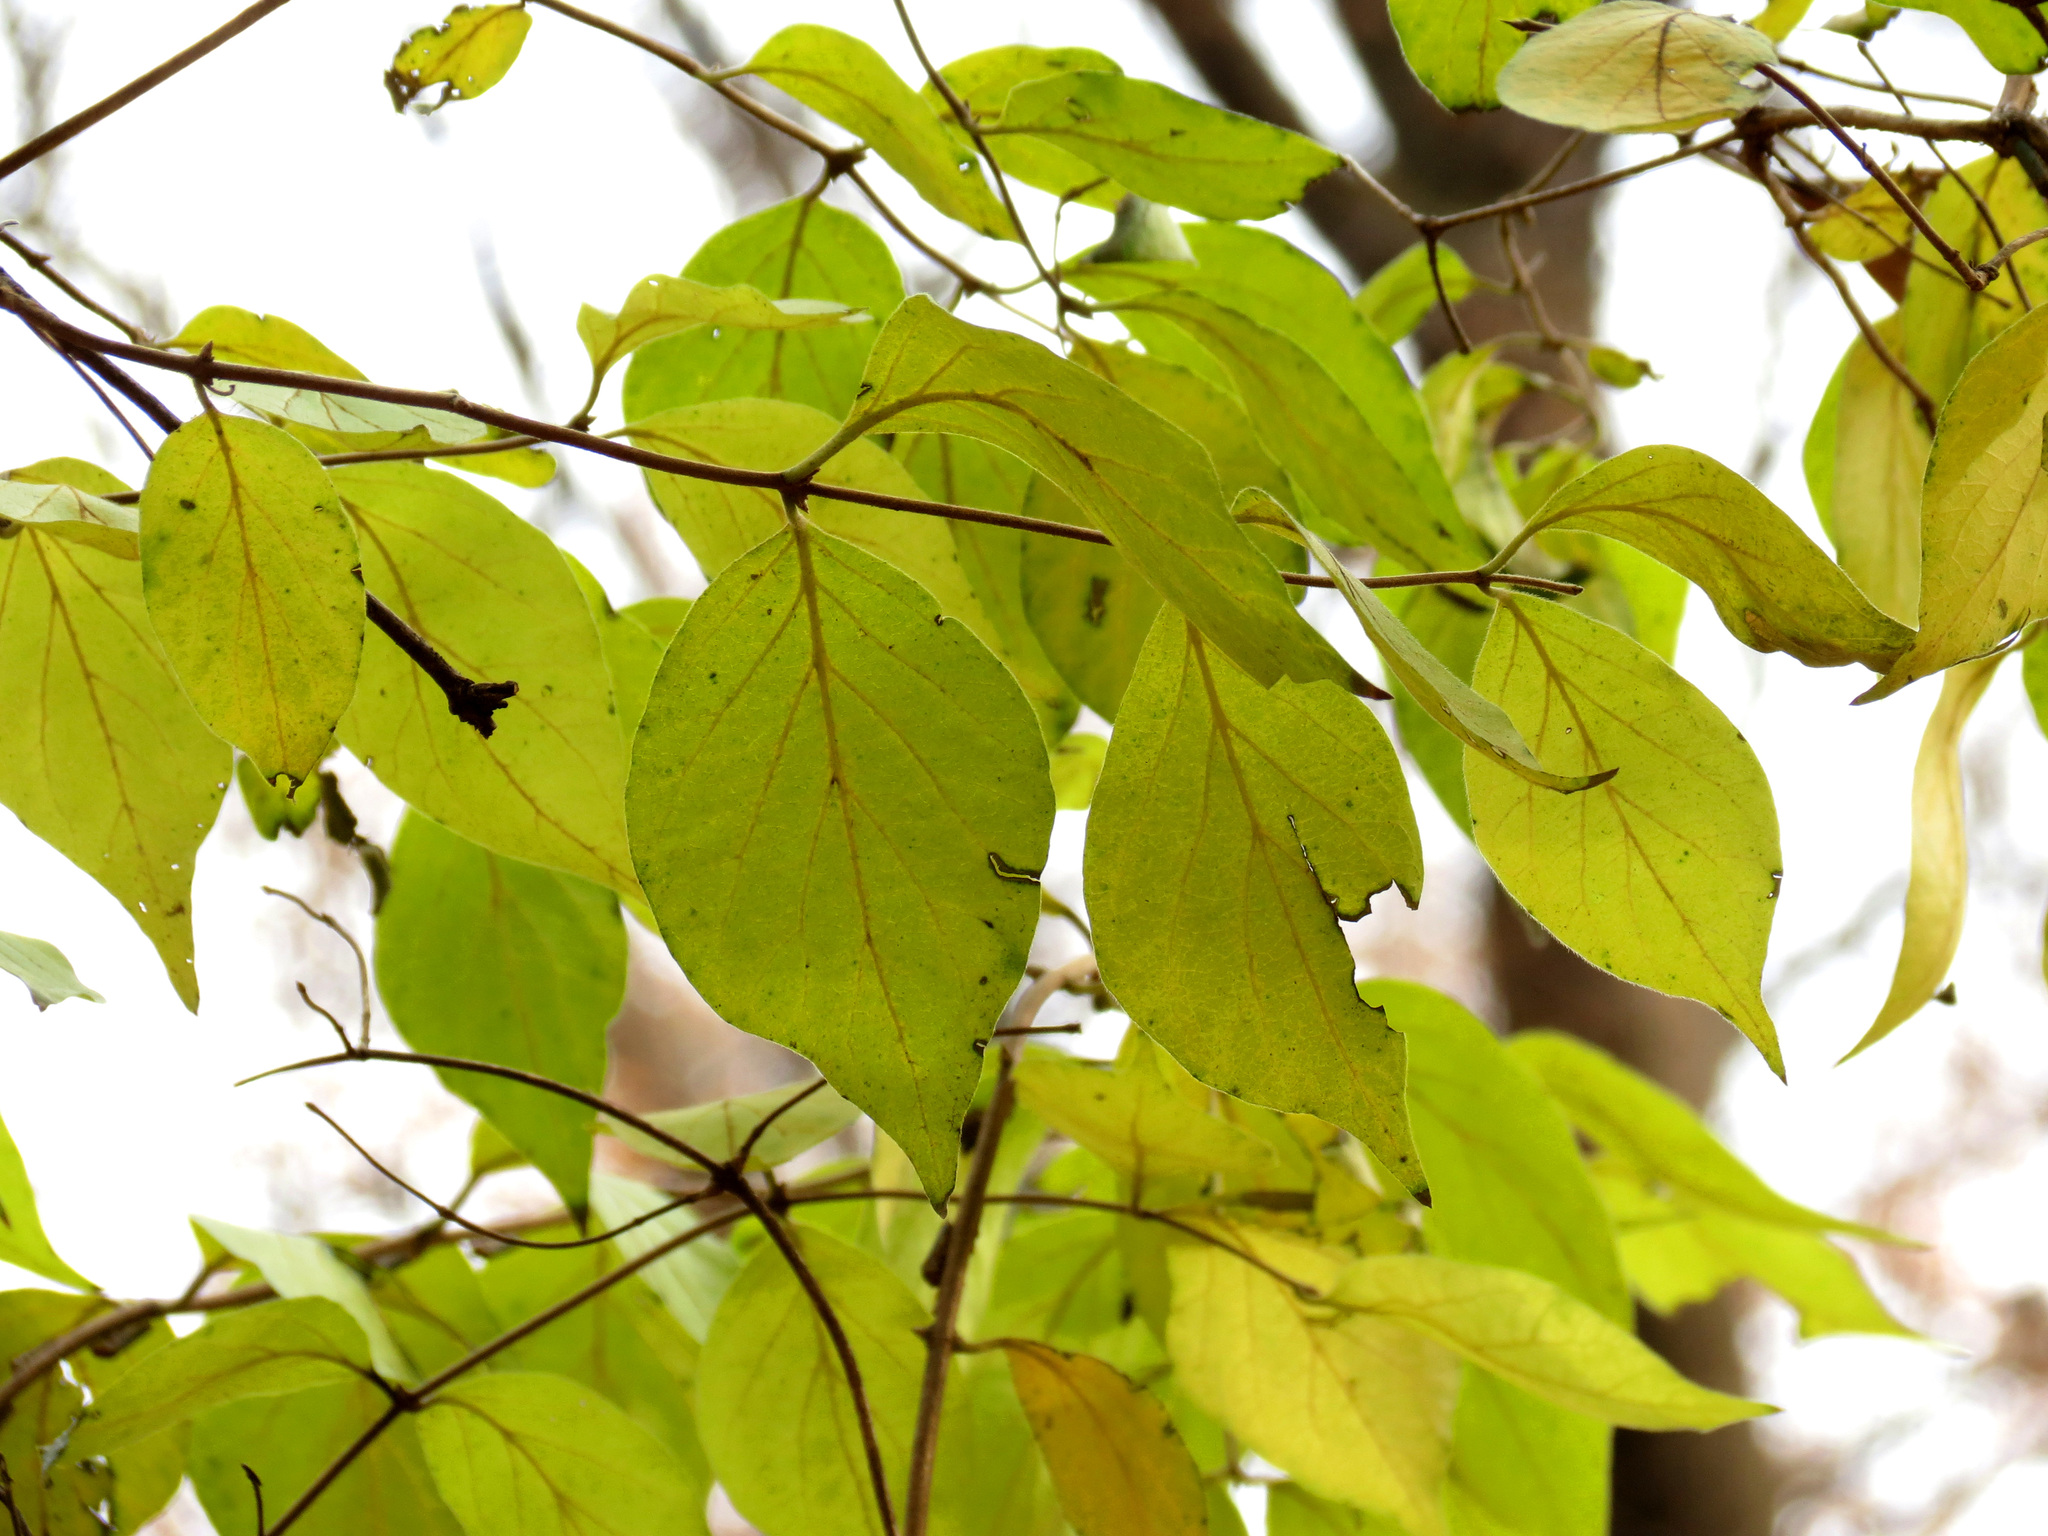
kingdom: Plantae
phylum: Tracheophyta
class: Magnoliopsida
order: Dipsacales
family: Caprifoliaceae
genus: Lonicera
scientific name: Lonicera maackii
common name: Amur honeysuckle
